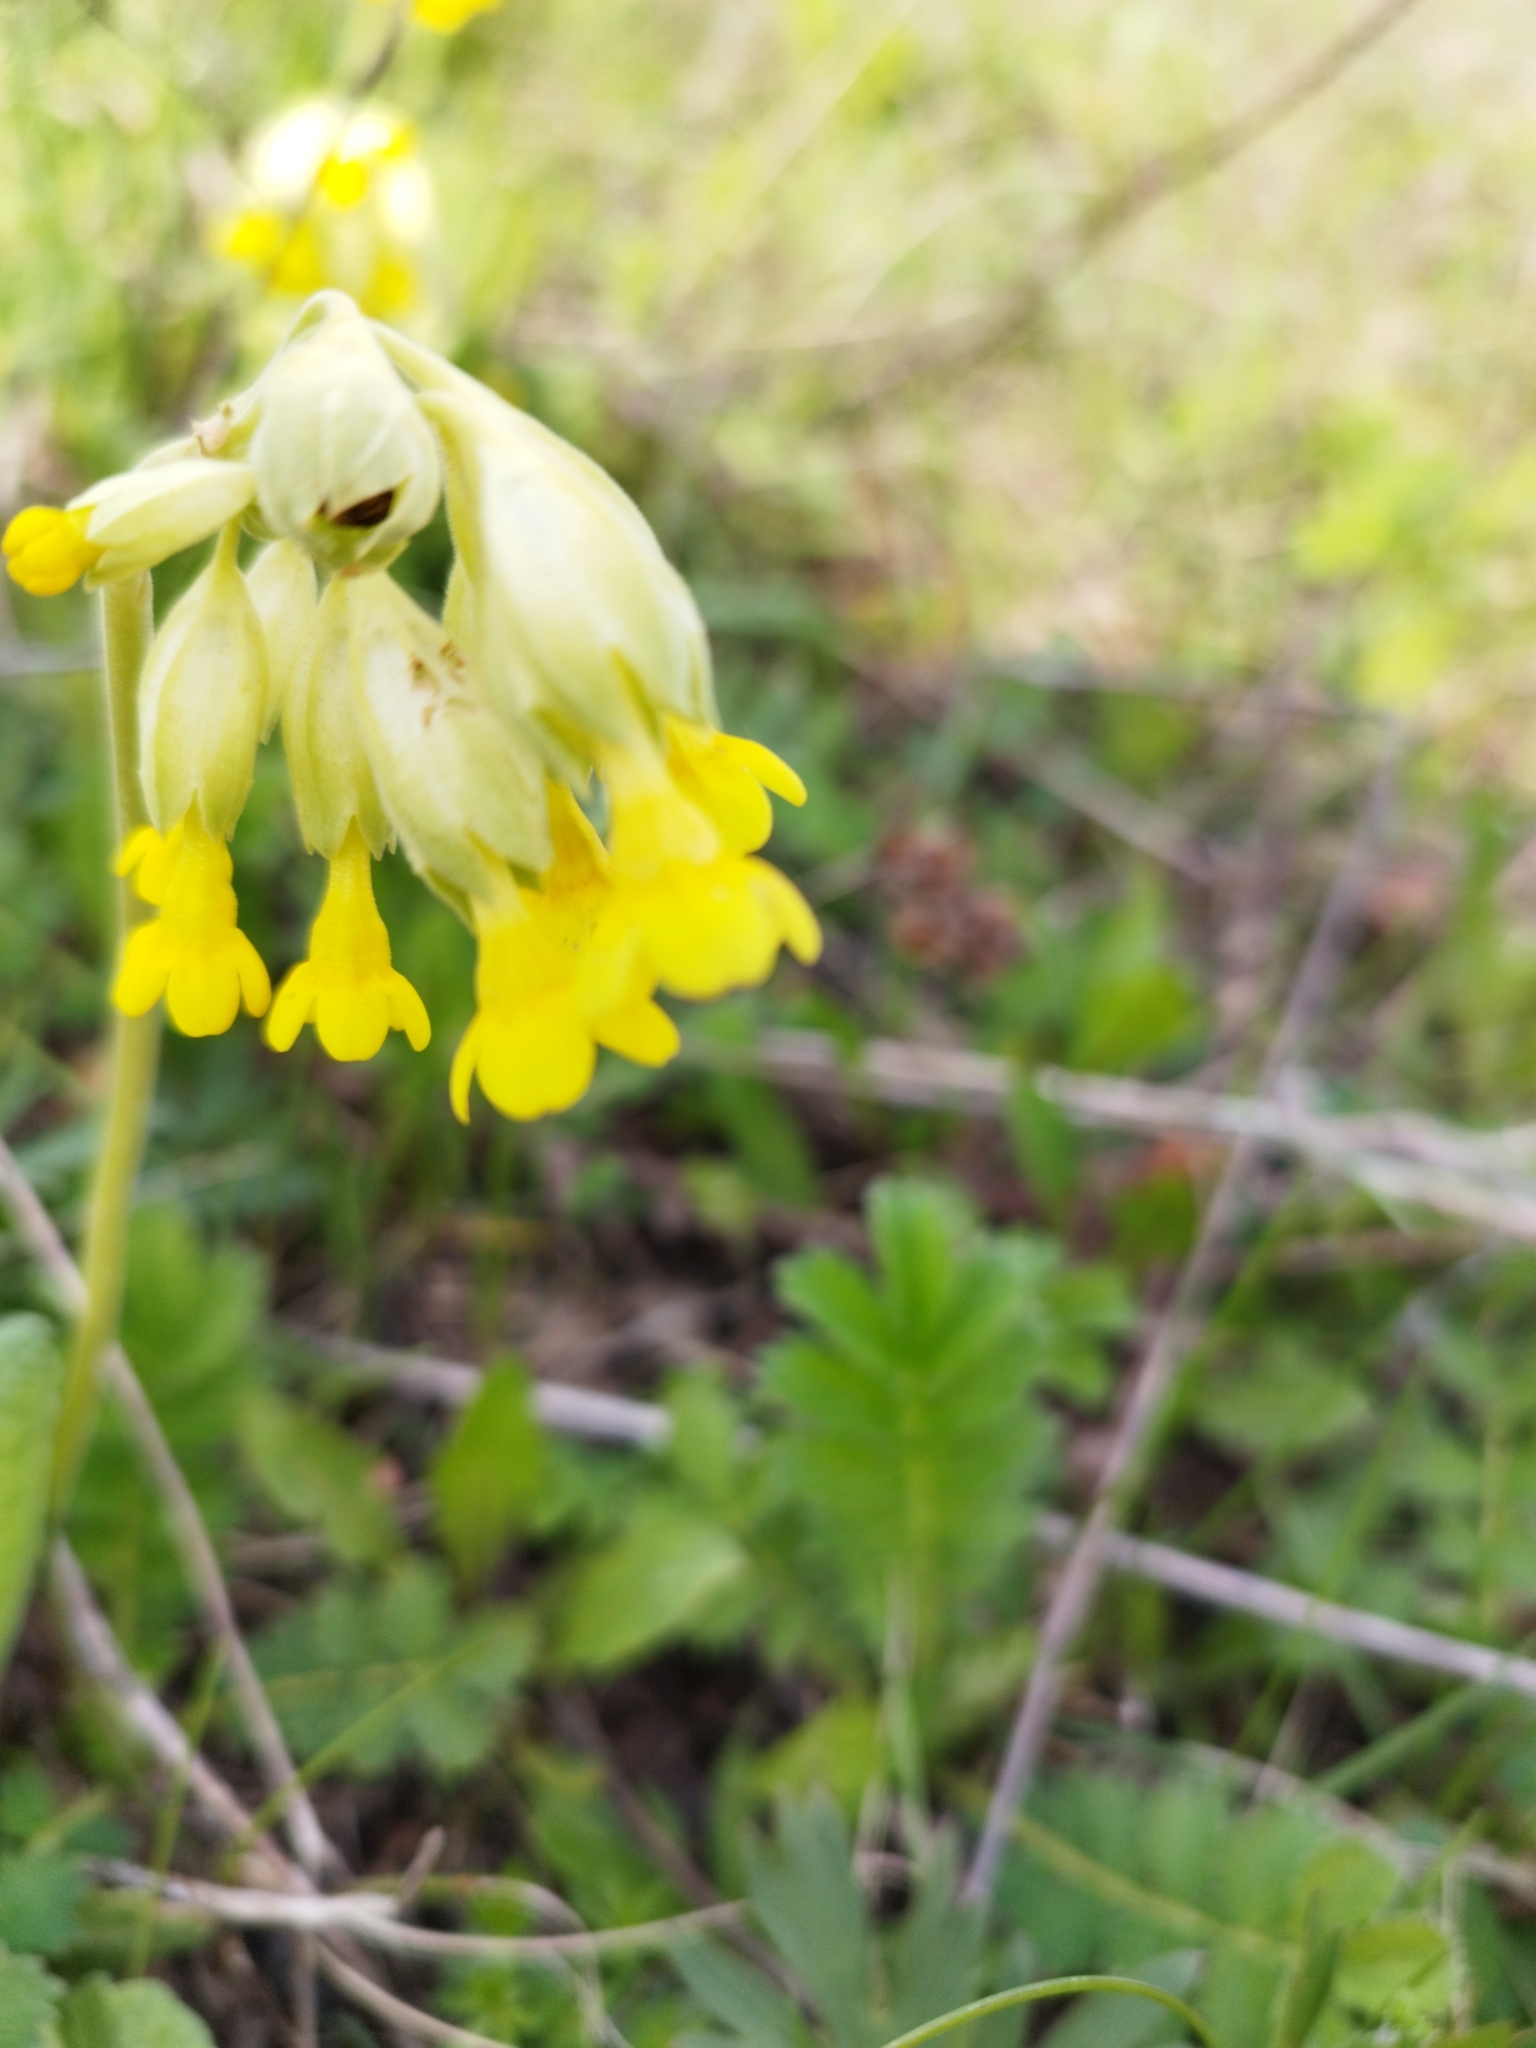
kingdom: Plantae
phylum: Tracheophyta
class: Magnoliopsida
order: Ericales
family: Primulaceae
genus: Primula
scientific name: Primula veris
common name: Cowslip
